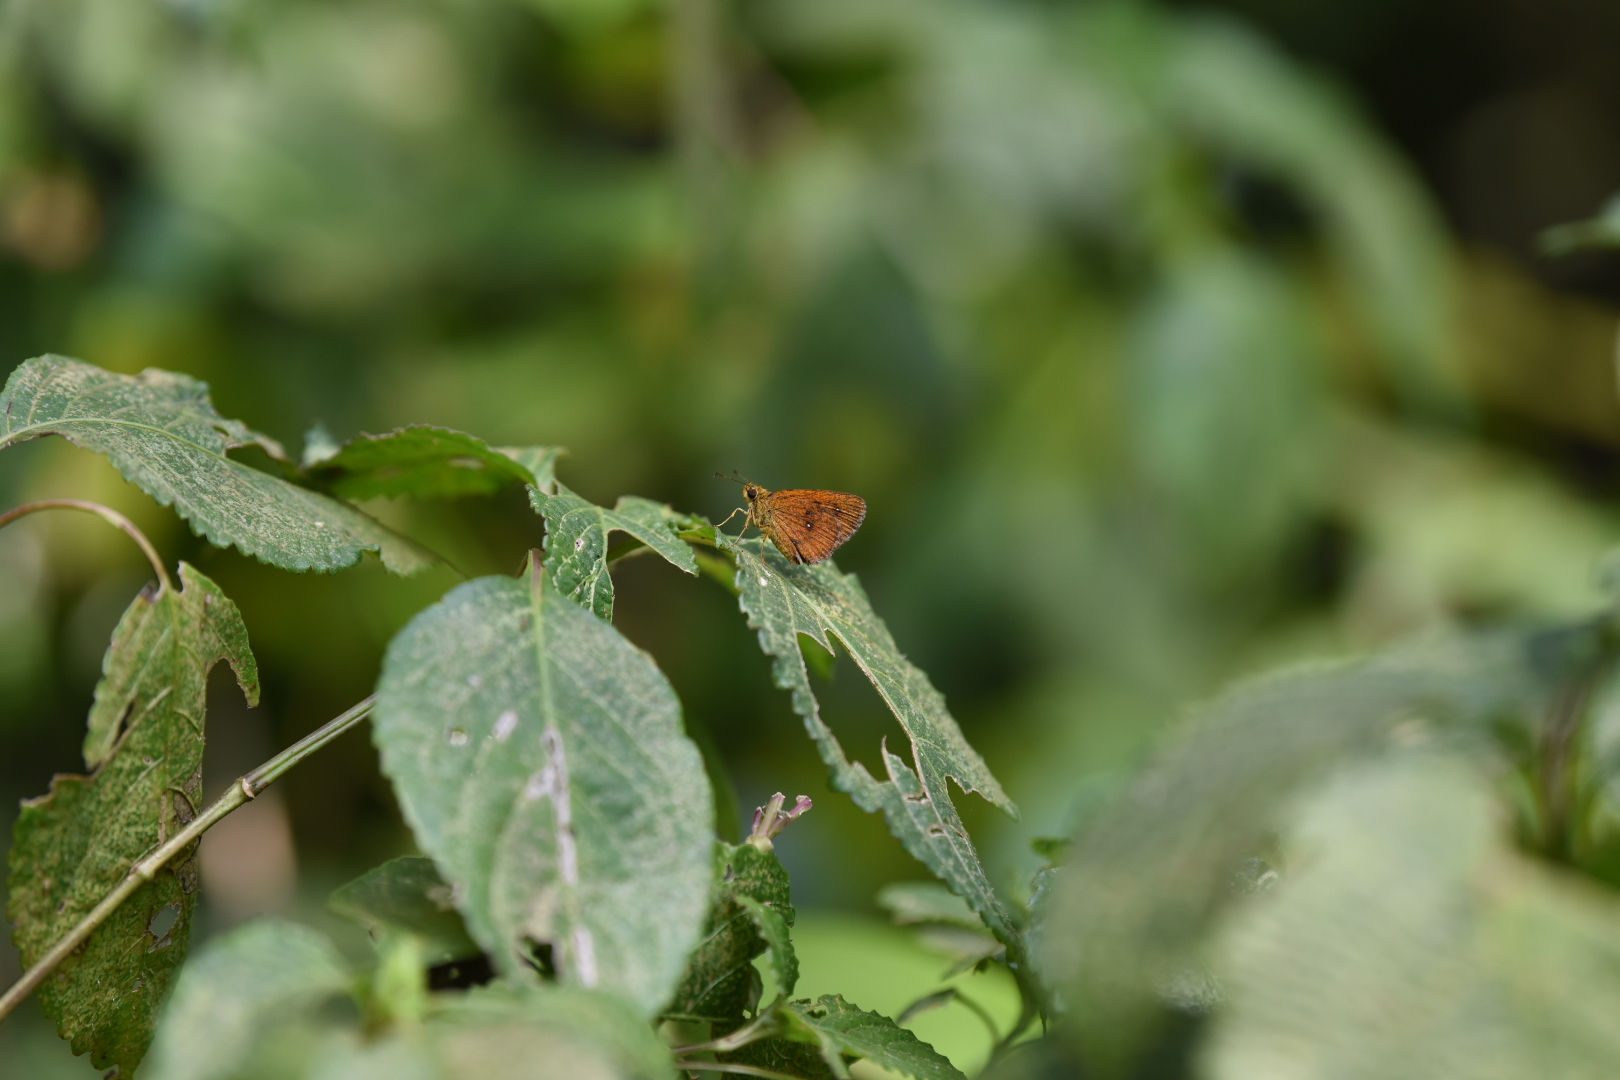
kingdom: Animalia
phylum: Arthropoda
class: Insecta
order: Lepidoptera
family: Hesperiidae
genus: Iambrix
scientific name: Iambrix salsala
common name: Chestnut bob
